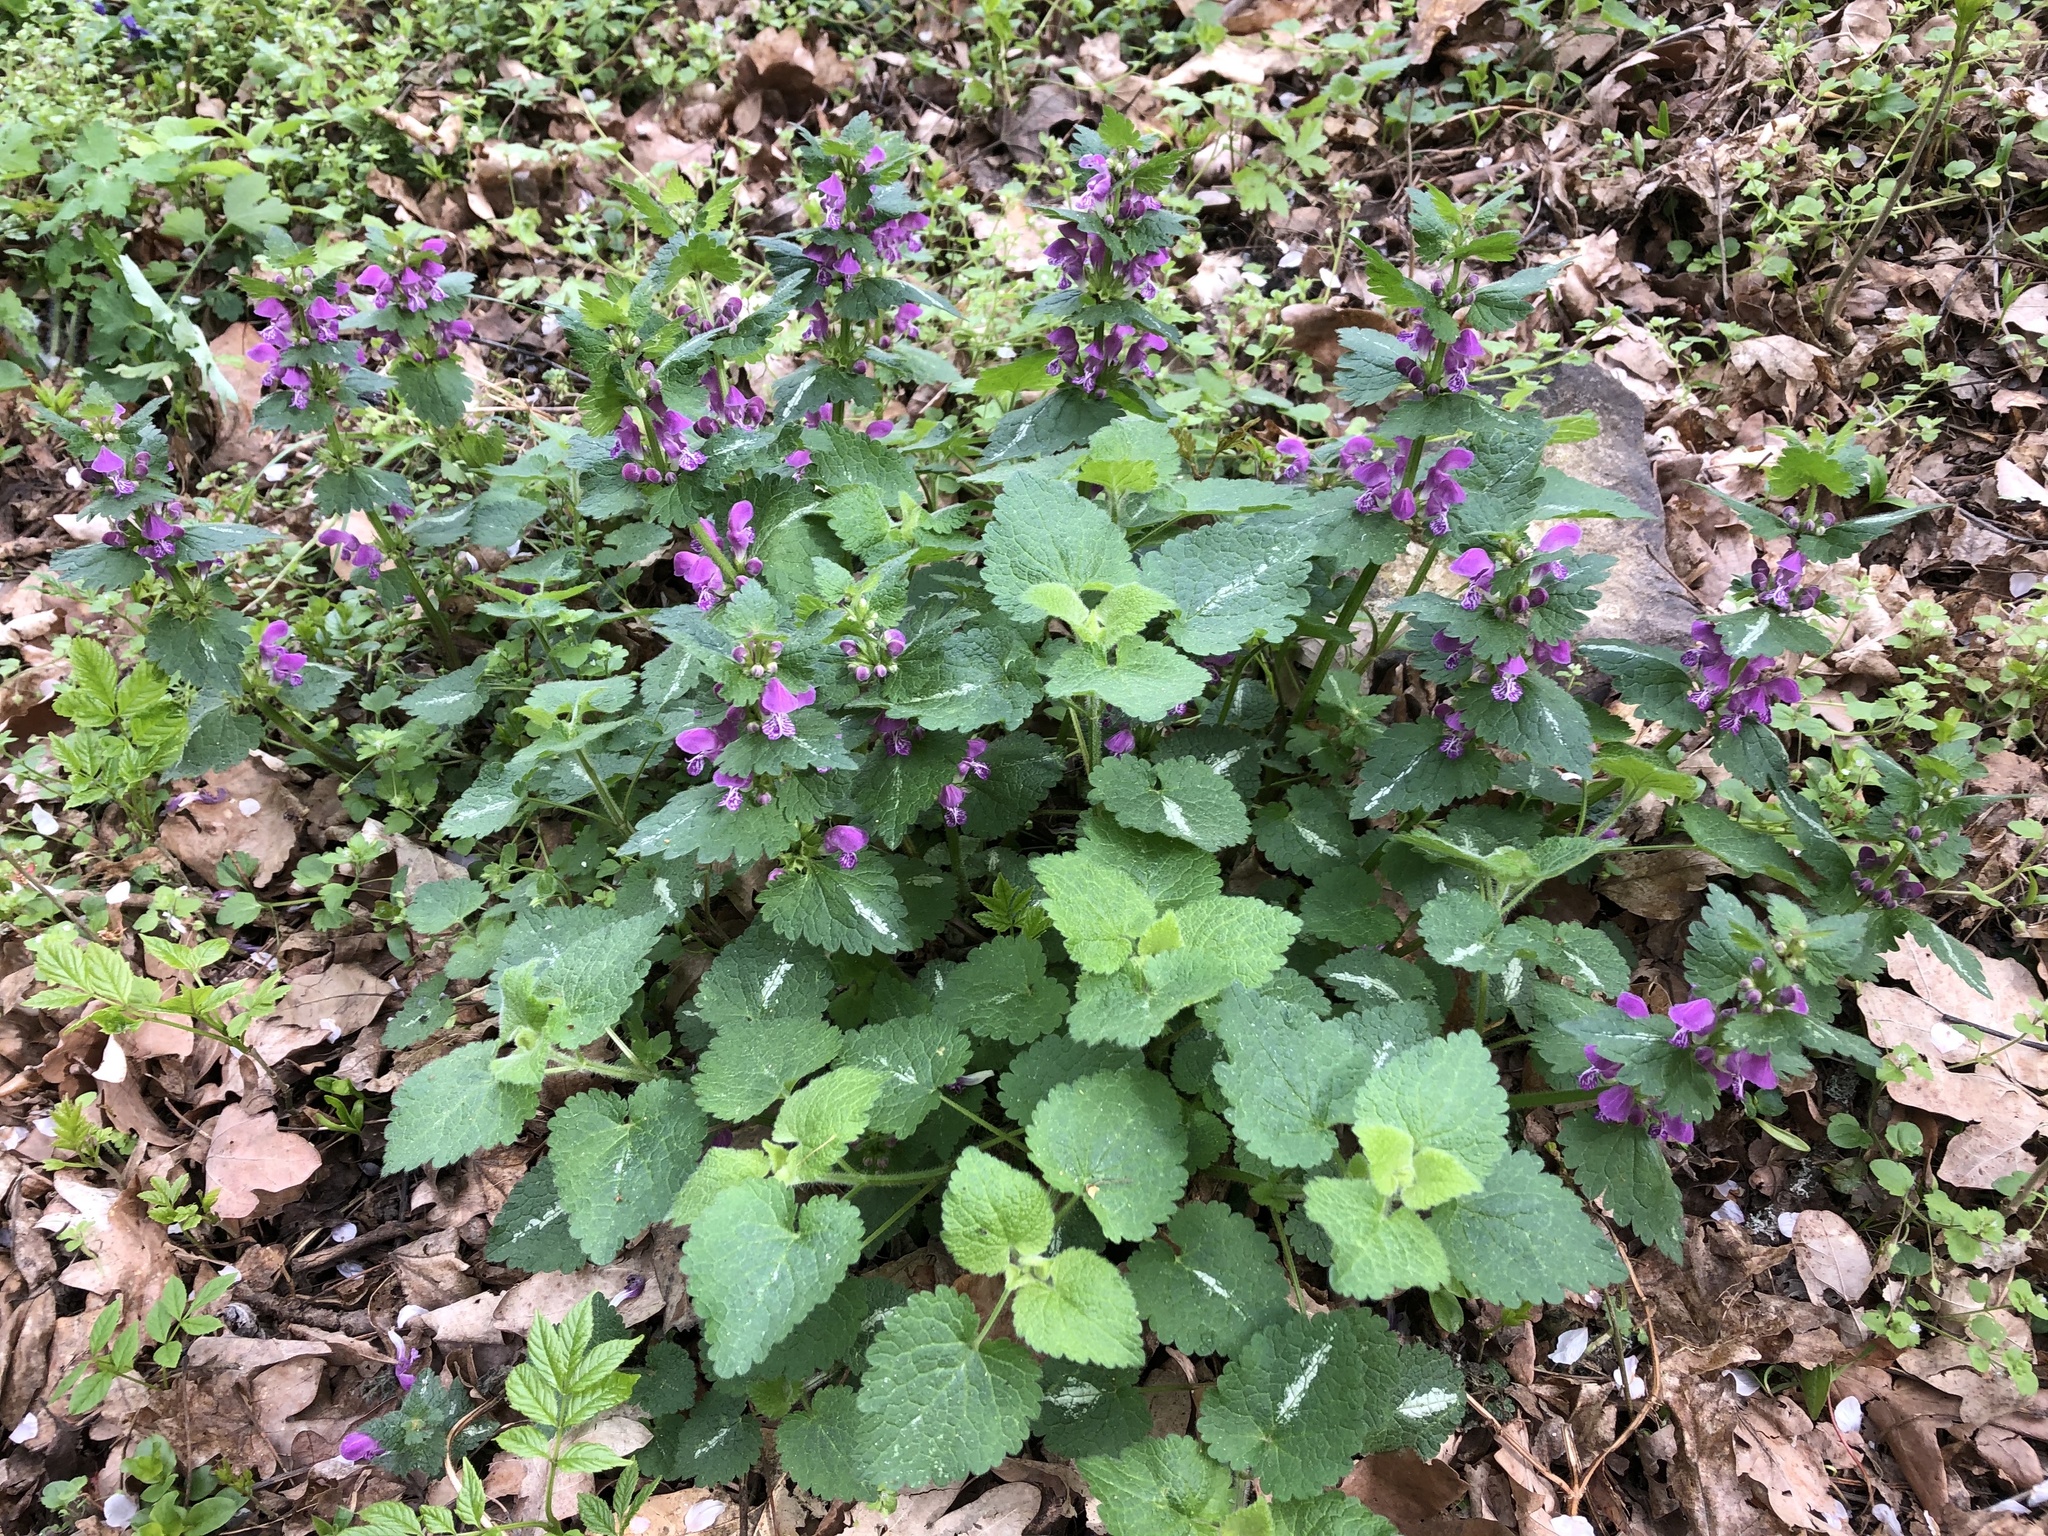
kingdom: Plantae
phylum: Tracheophyta
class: Magnoliopsida
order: Lamiales
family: Lamiaceae
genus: Lamium
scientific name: Lamium maculatum
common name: Spotted dead-nettle
